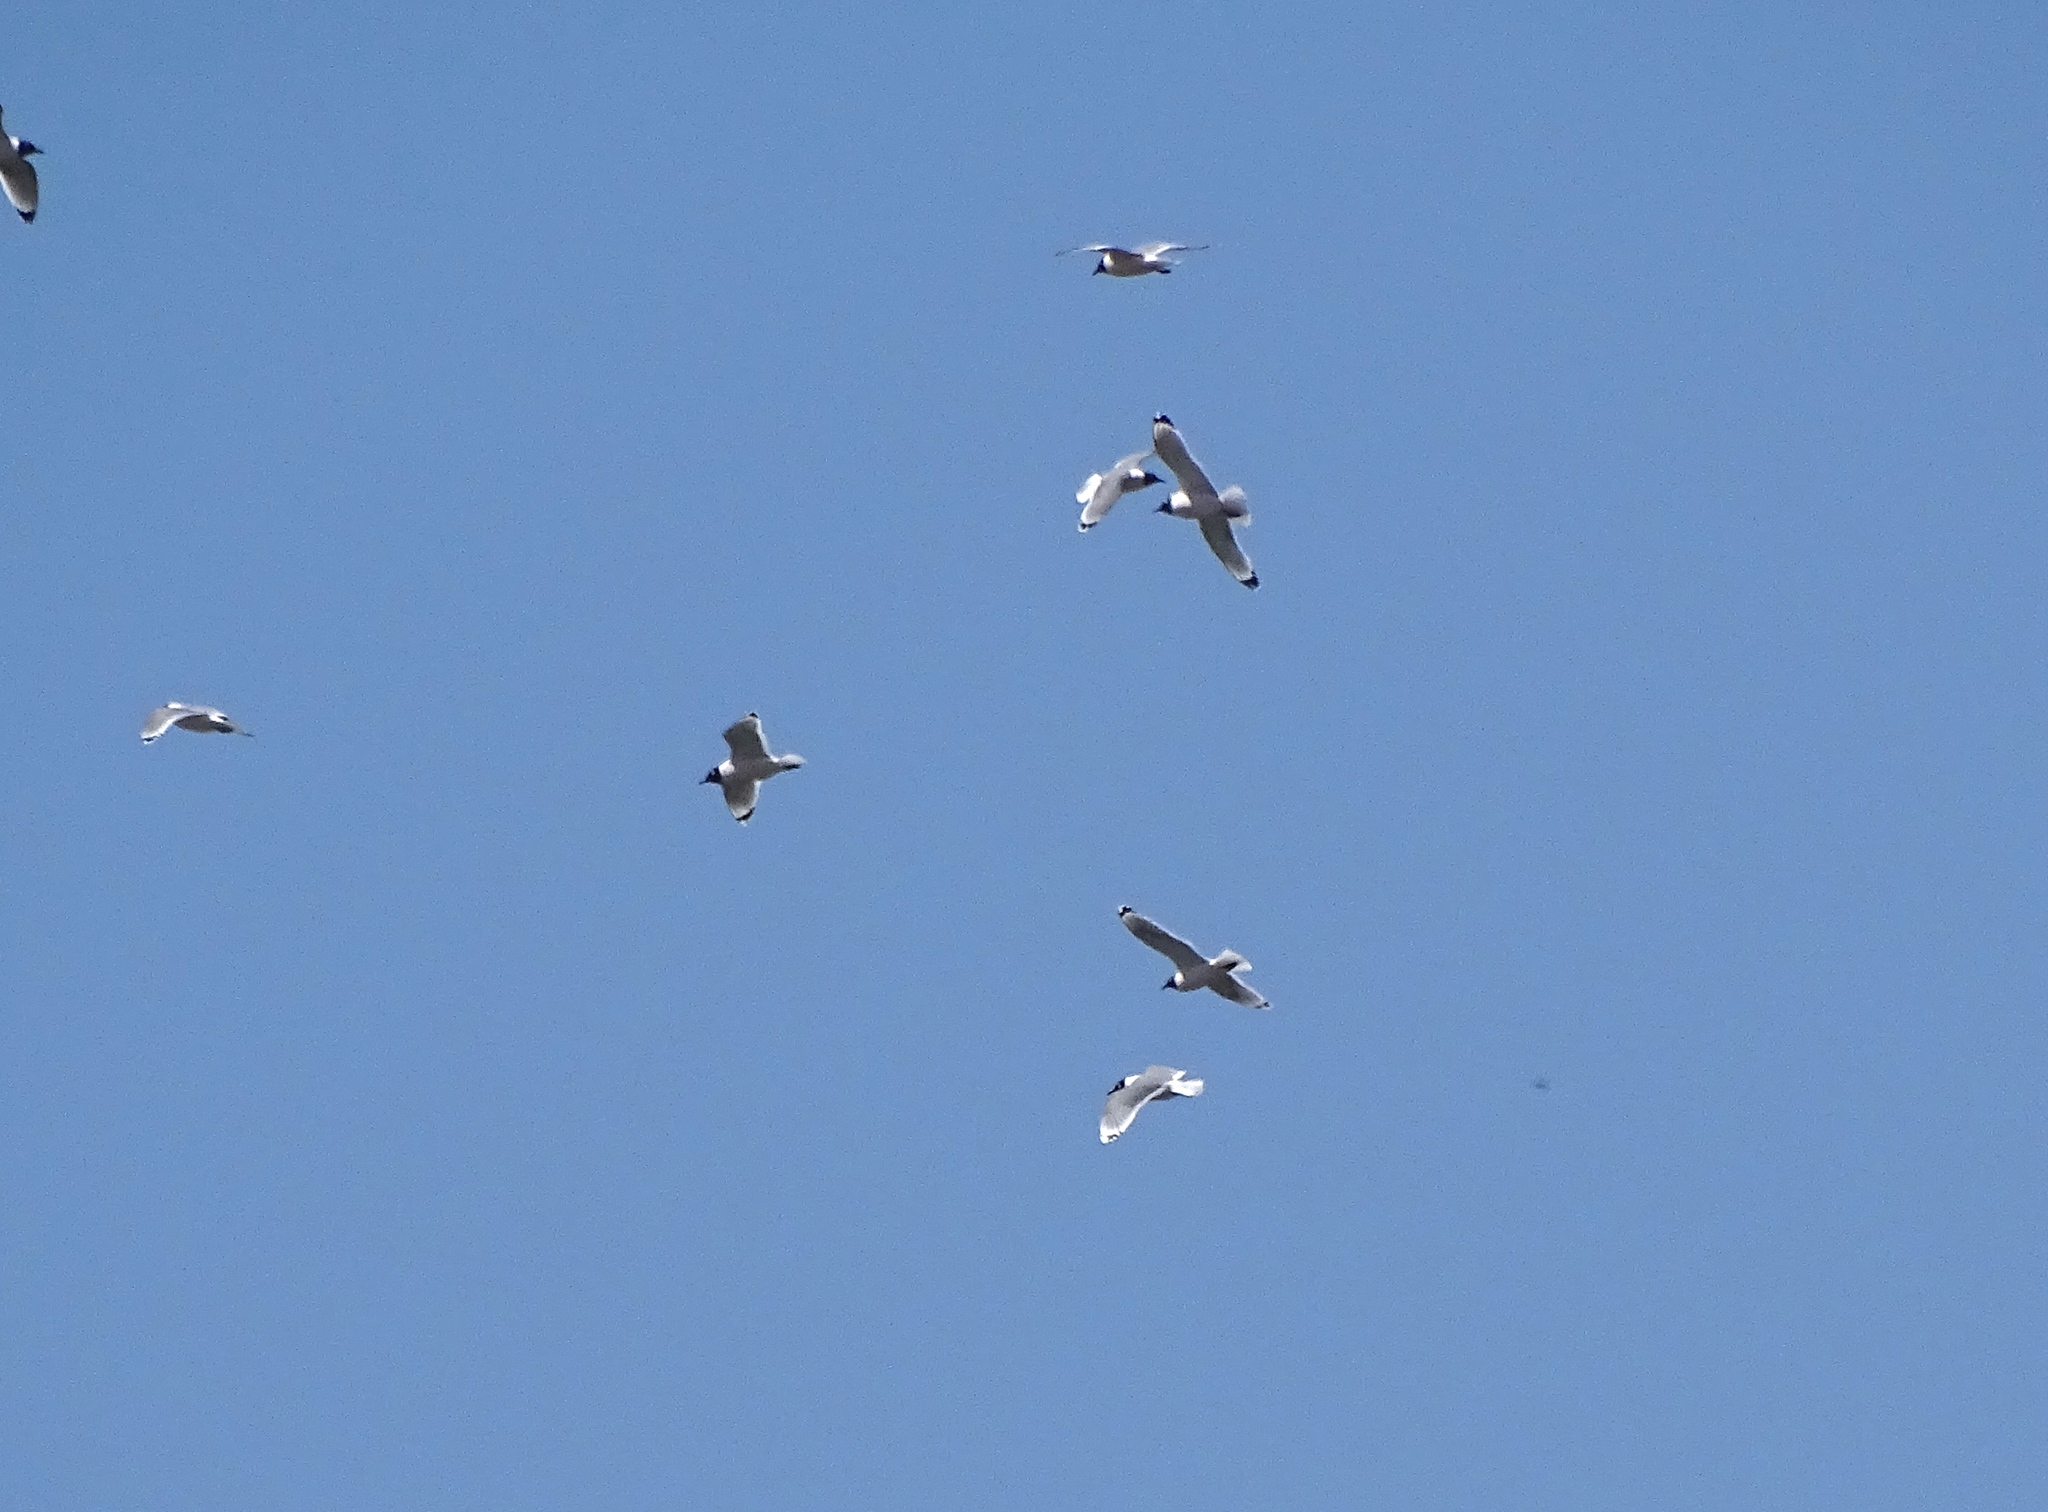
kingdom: Animalia
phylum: Chordata
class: Aves
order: Charadriiformes
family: Laridae
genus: Leucophaeus
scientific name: Leucophaeus pipixcan
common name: Franklin's gull
